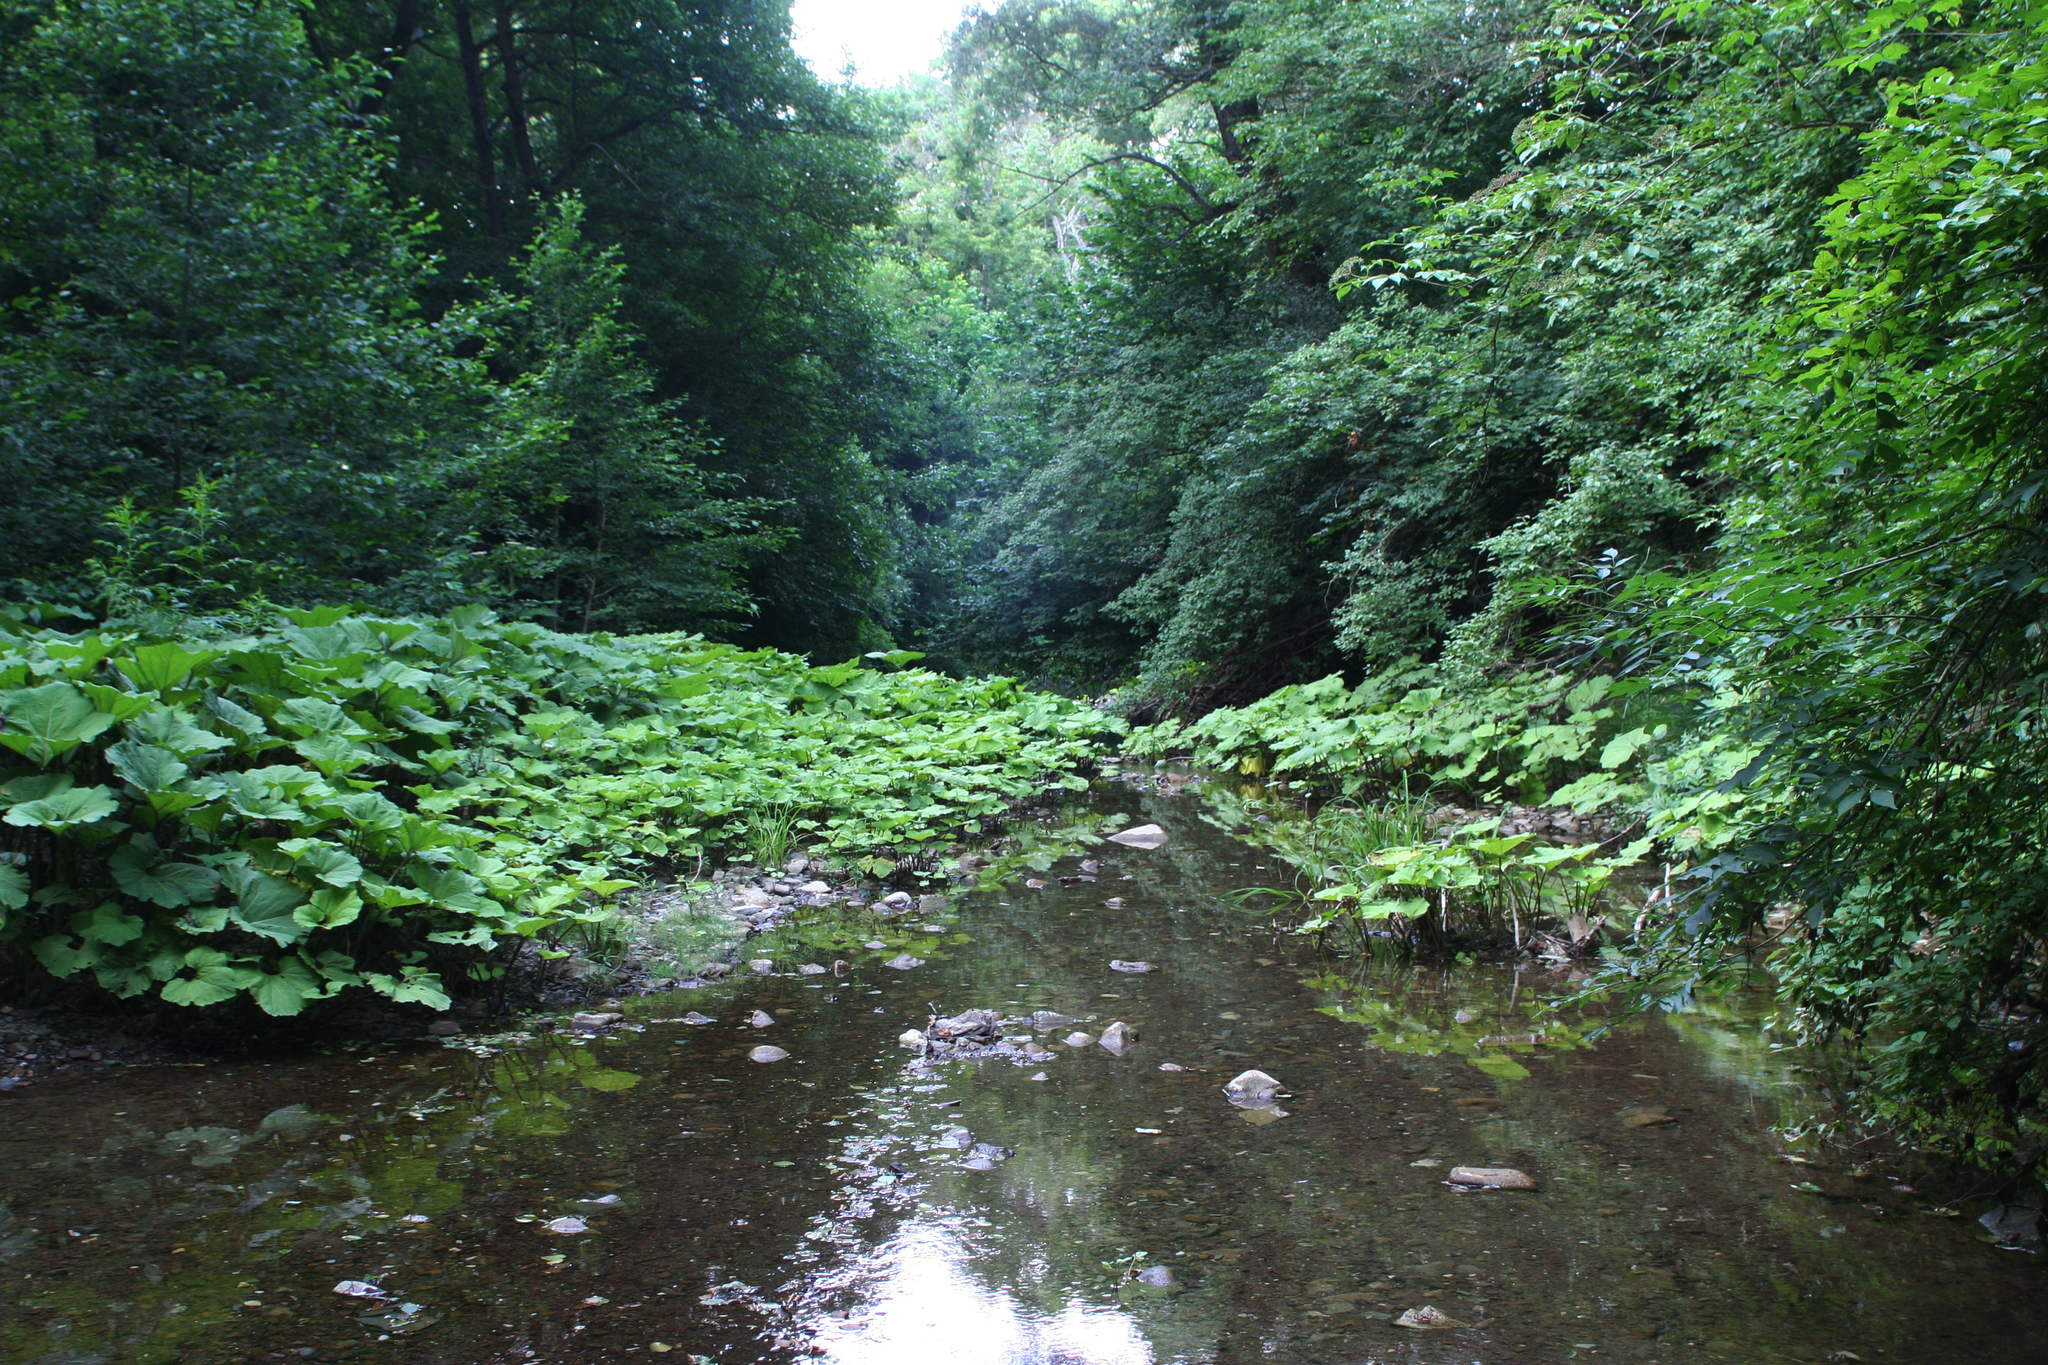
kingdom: Plantae
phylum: Tracheophyta
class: Magnoliopsida
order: Asterales
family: Asteraceae
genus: Petasites
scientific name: Petasites albus
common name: White butterbur
